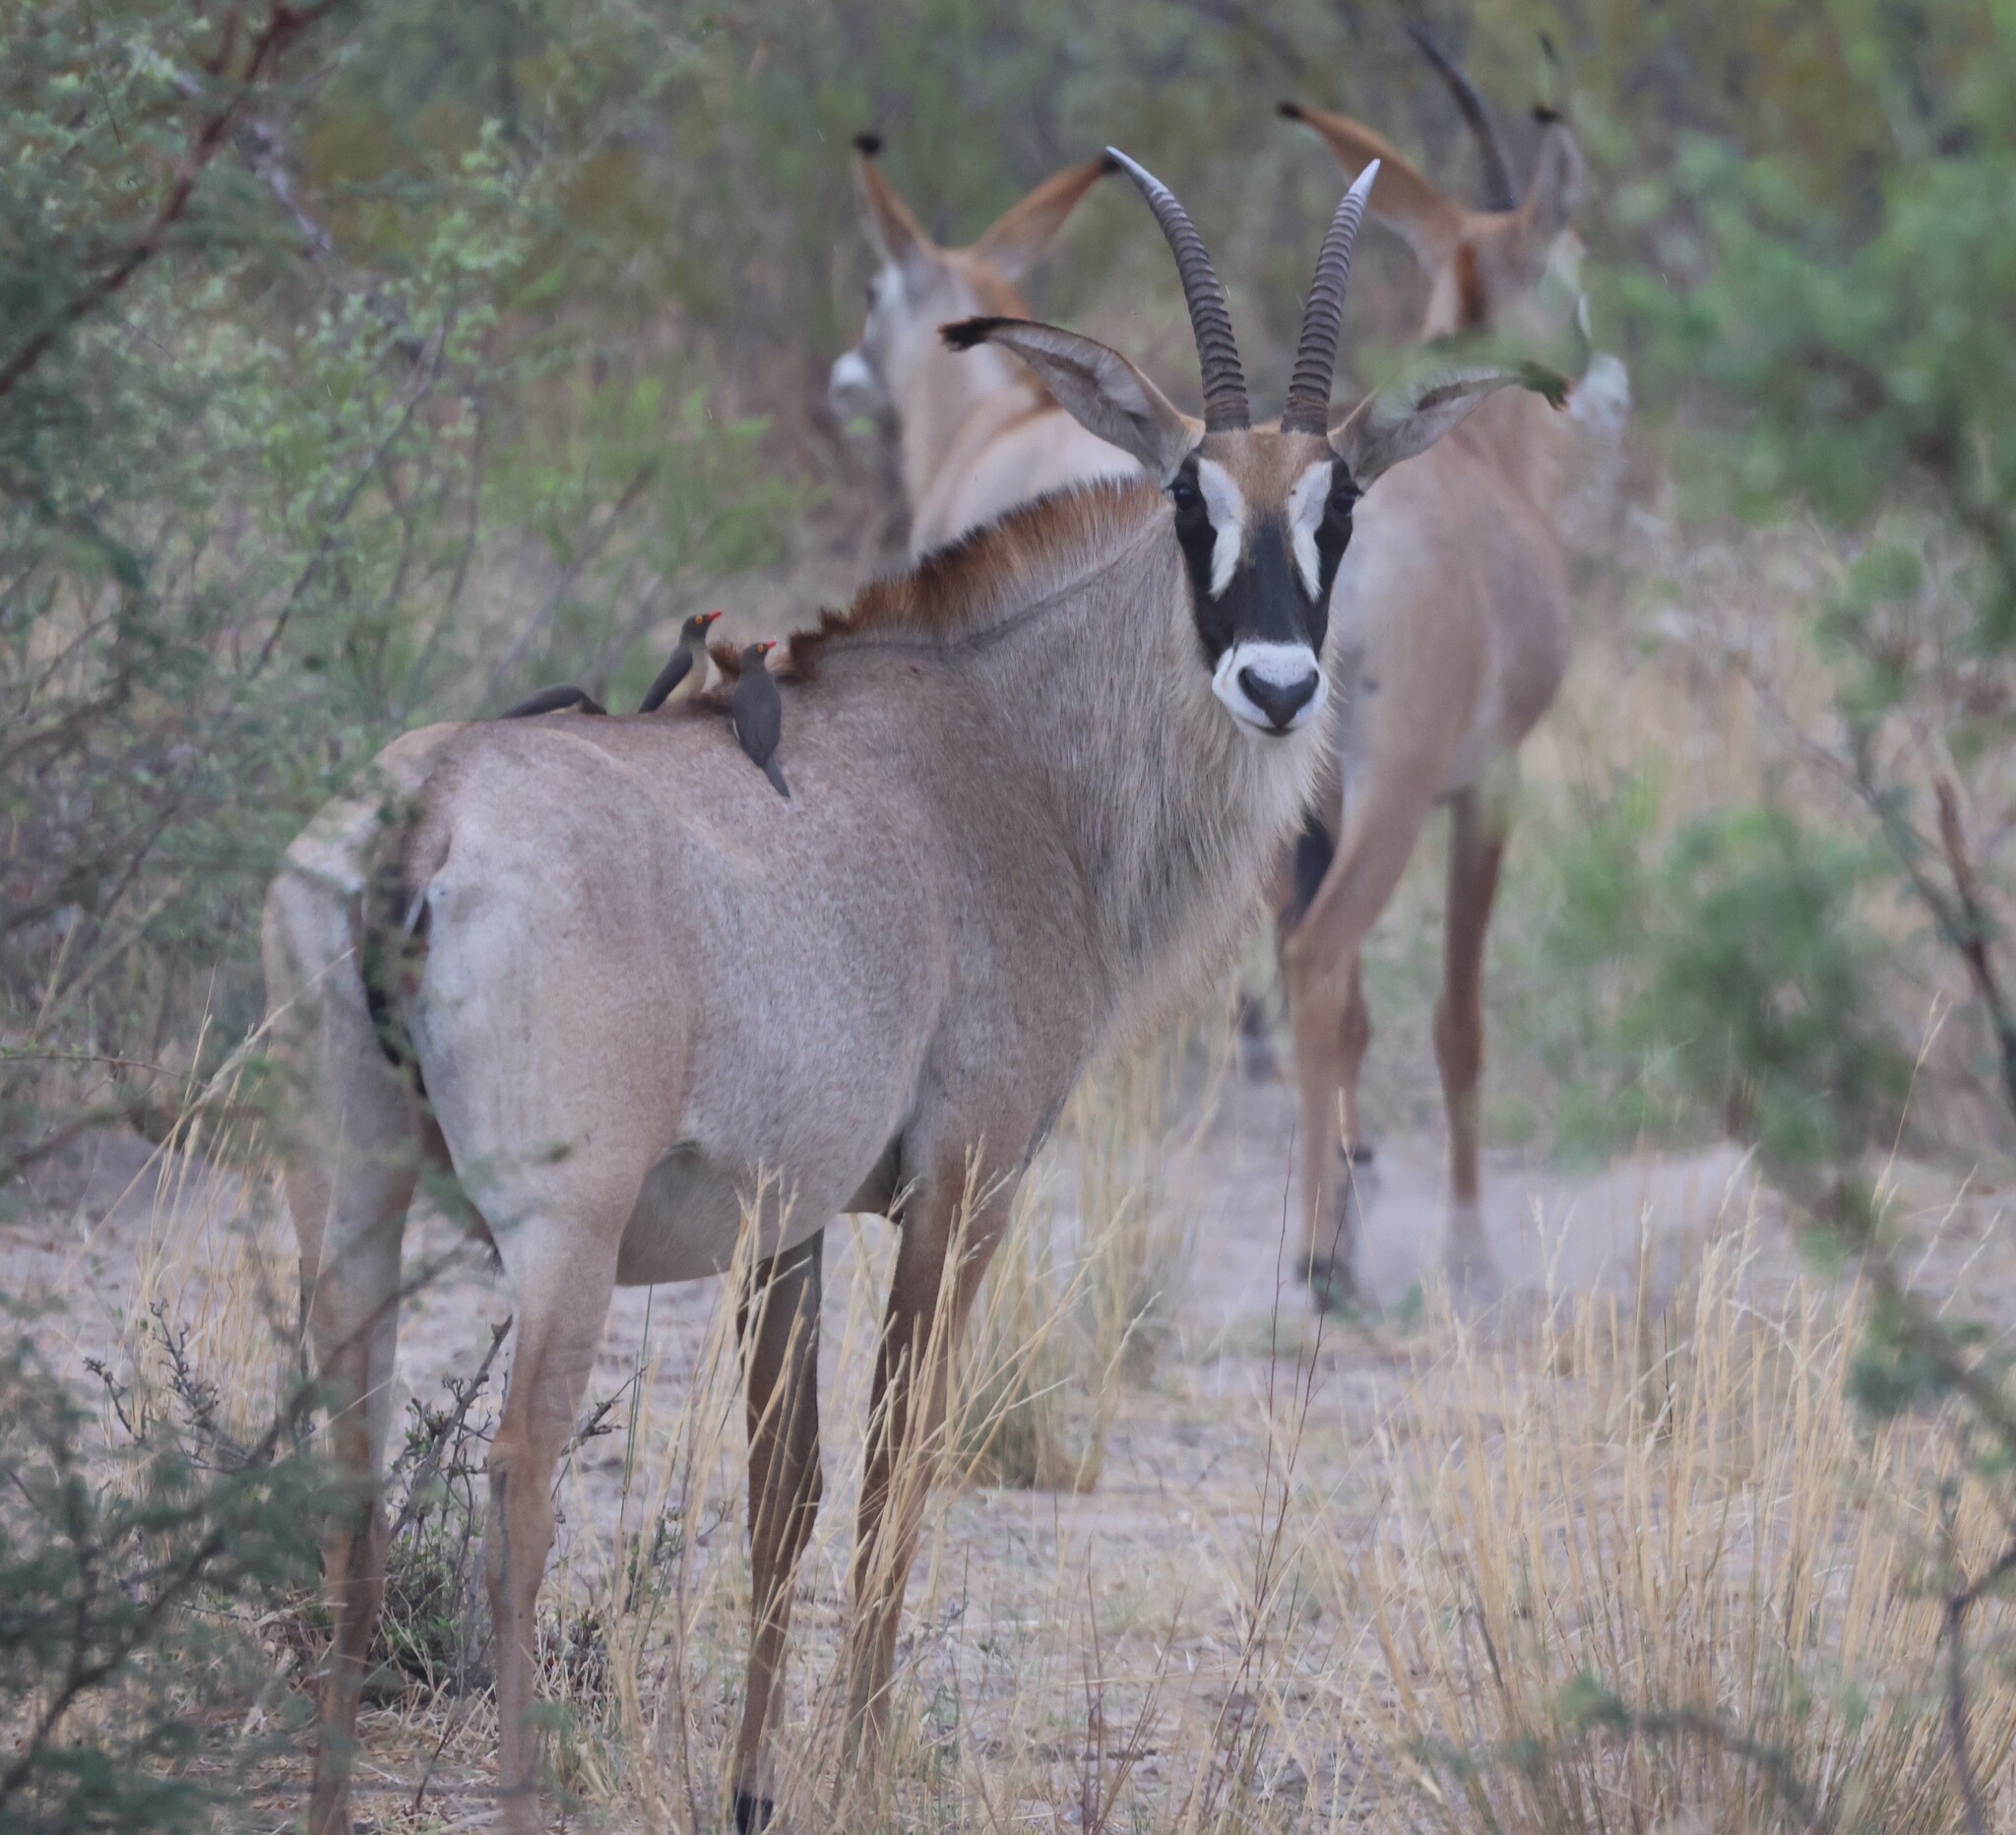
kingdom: Animalia
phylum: Chordata
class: Mammalia
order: Artiodactyla
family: Bovidae
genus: Hippotragus
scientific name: Hippotragus equinus
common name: Roan antelope
